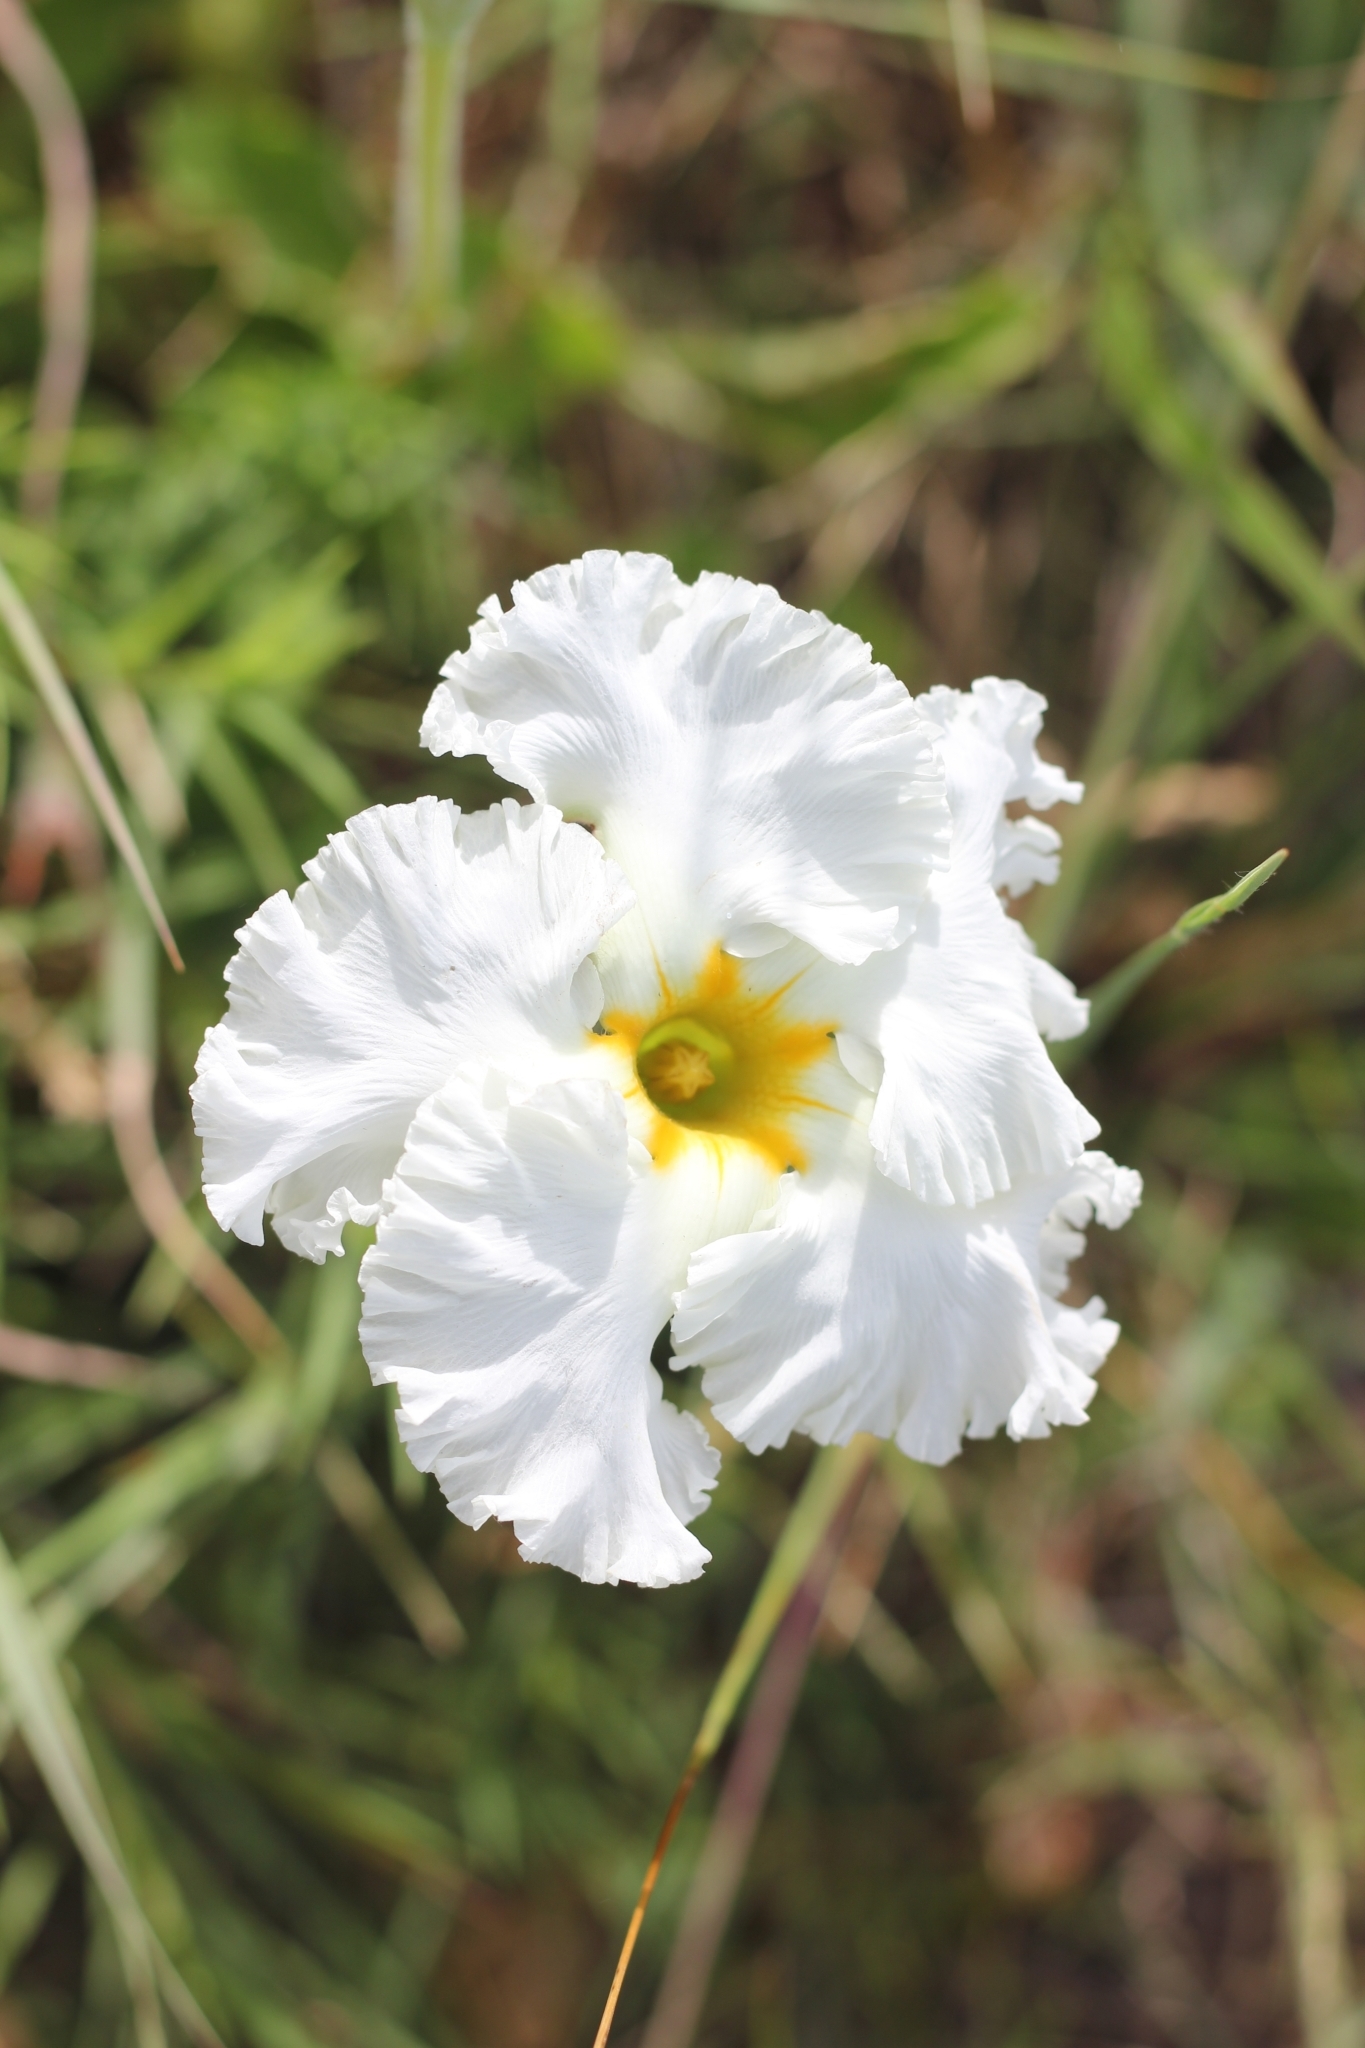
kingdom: Plantae
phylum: Tracheophyta
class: Magnoliopsida
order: Gentianales
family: Apocynaceae
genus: Mandevilla
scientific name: Mandevilla petraea
